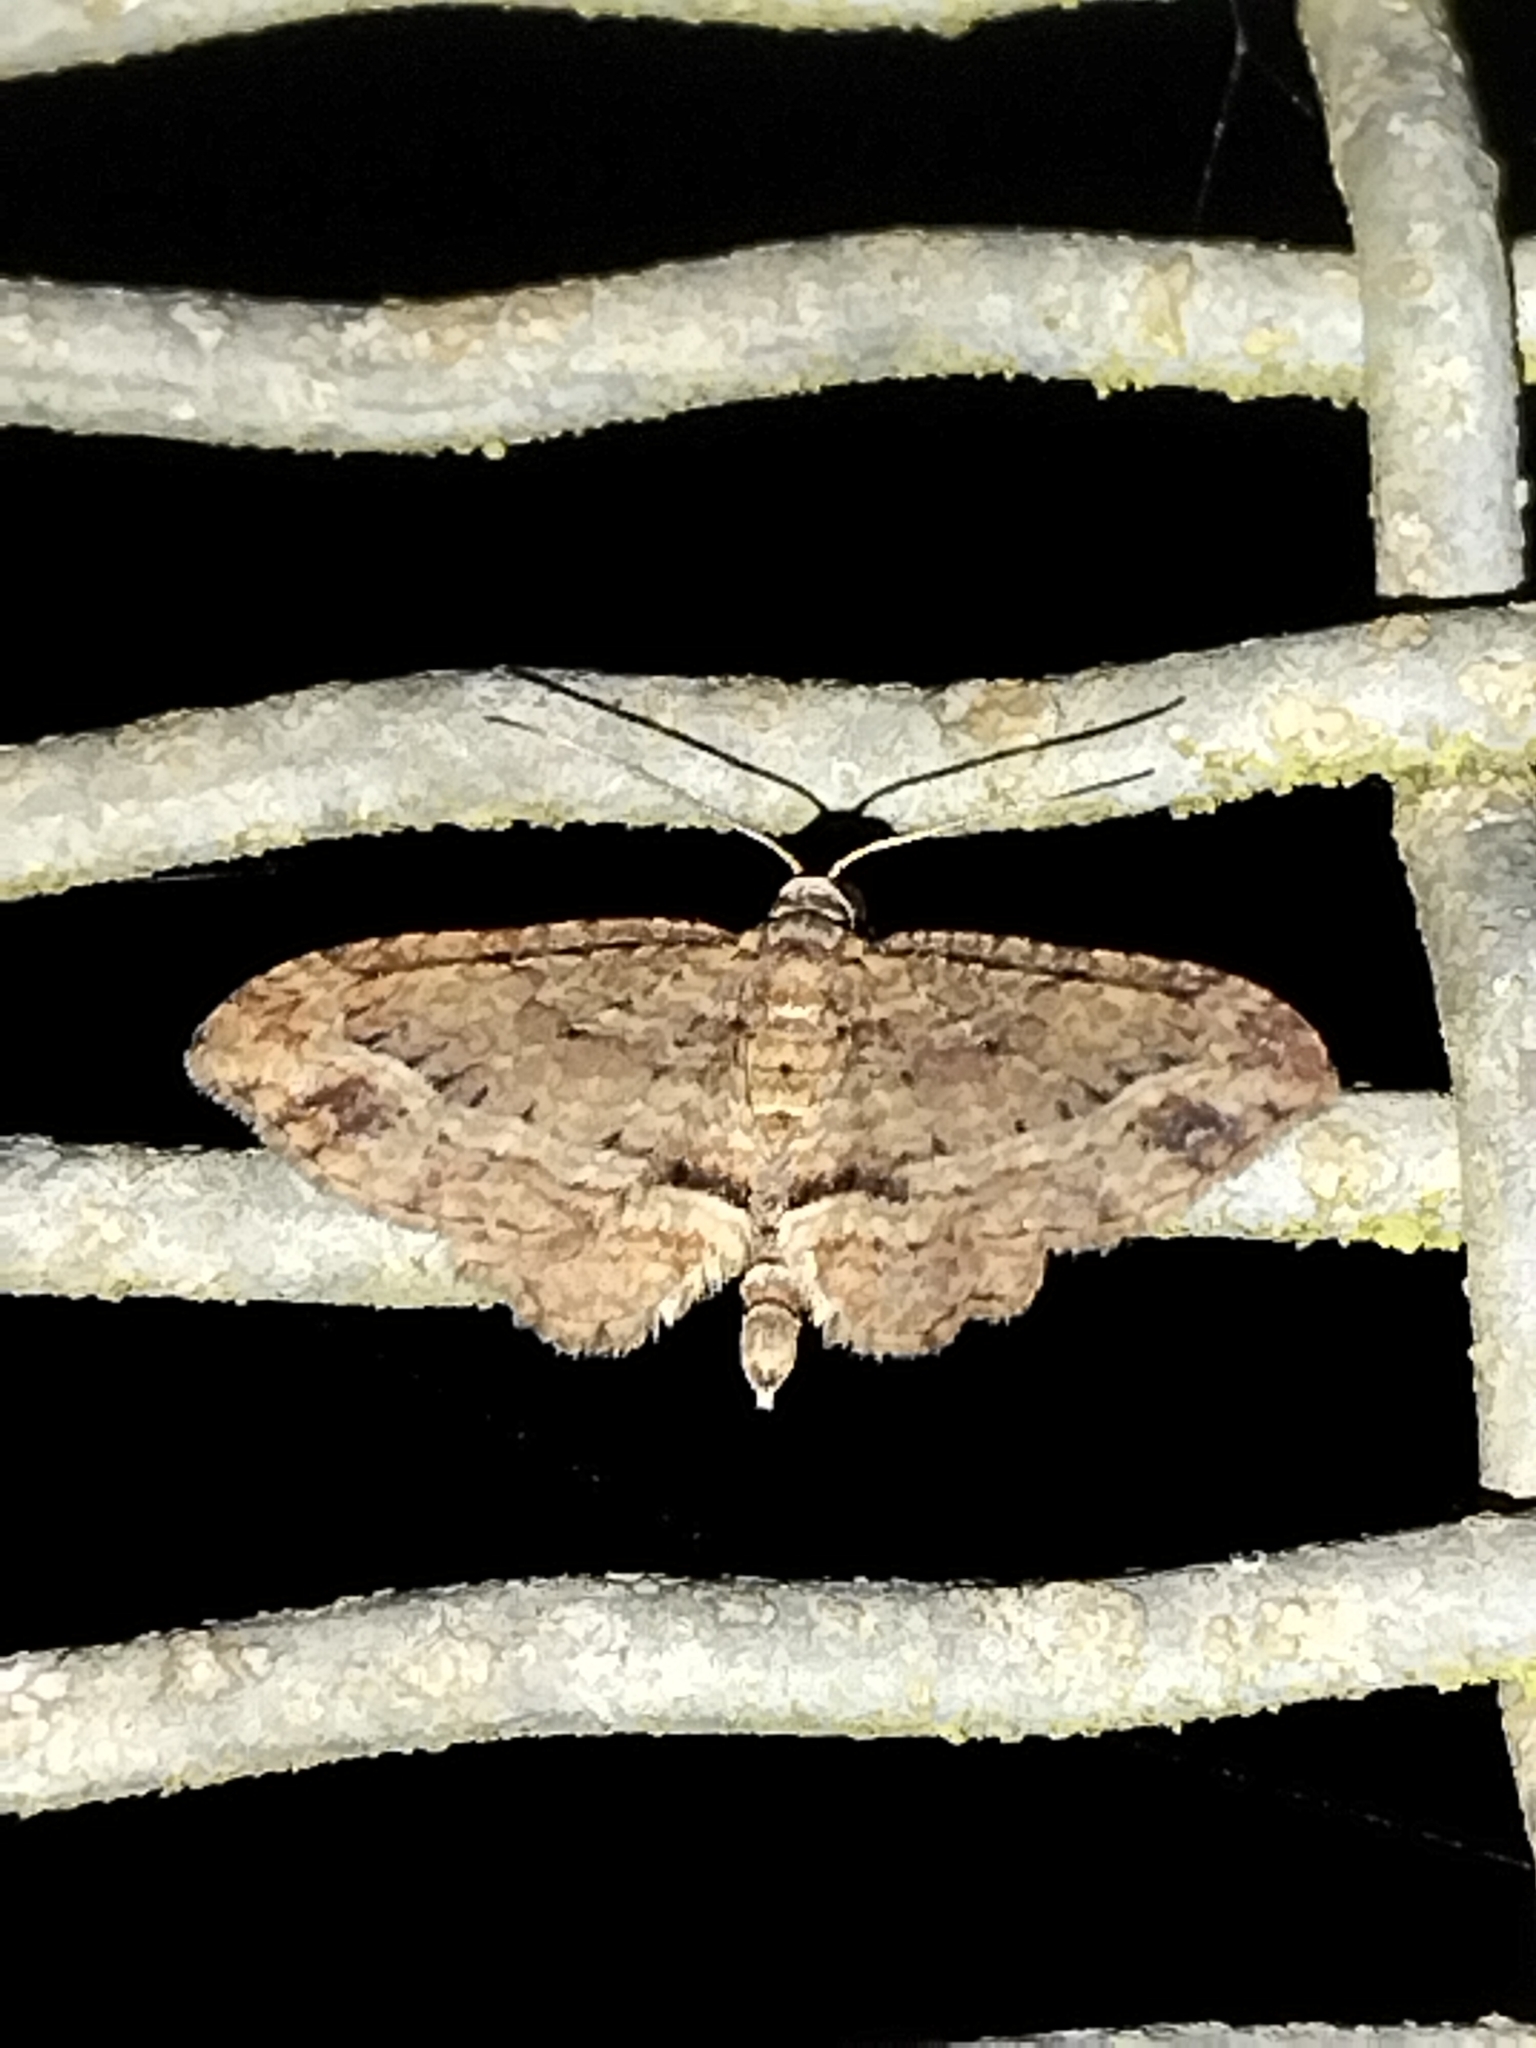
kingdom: Animalia
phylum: Arthropoda
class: Insecta
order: Lepidoptera
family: Geometridae
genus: Chloroclystis
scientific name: Chloroclystis filata
